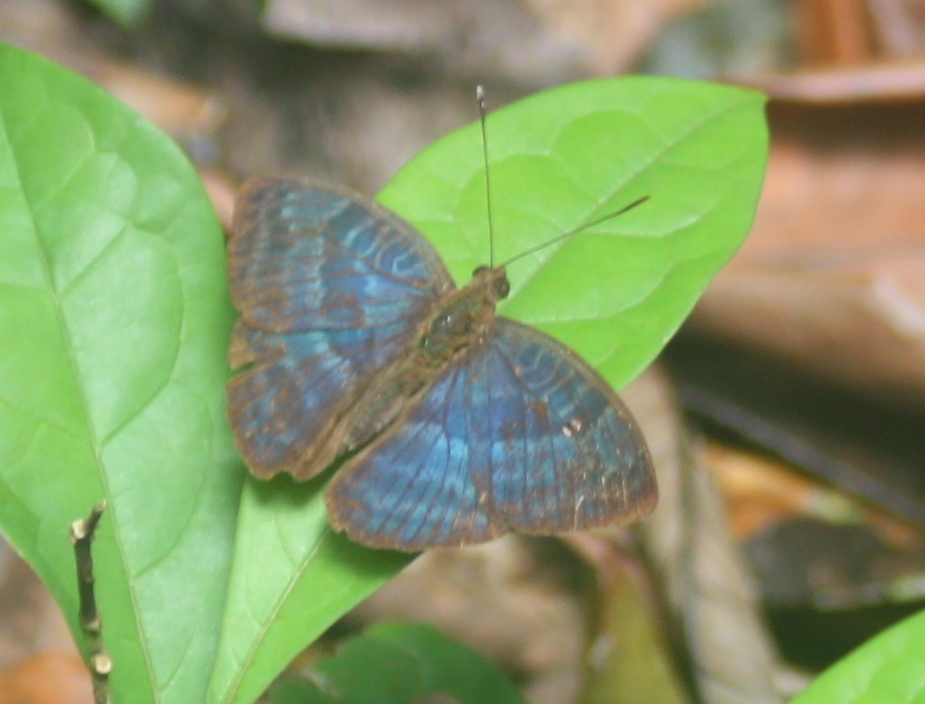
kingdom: Animalia
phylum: Arthropoda
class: Insecta
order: Lepidoptera
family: Nymphalidae
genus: Euriphene
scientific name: Euriphene veronica
